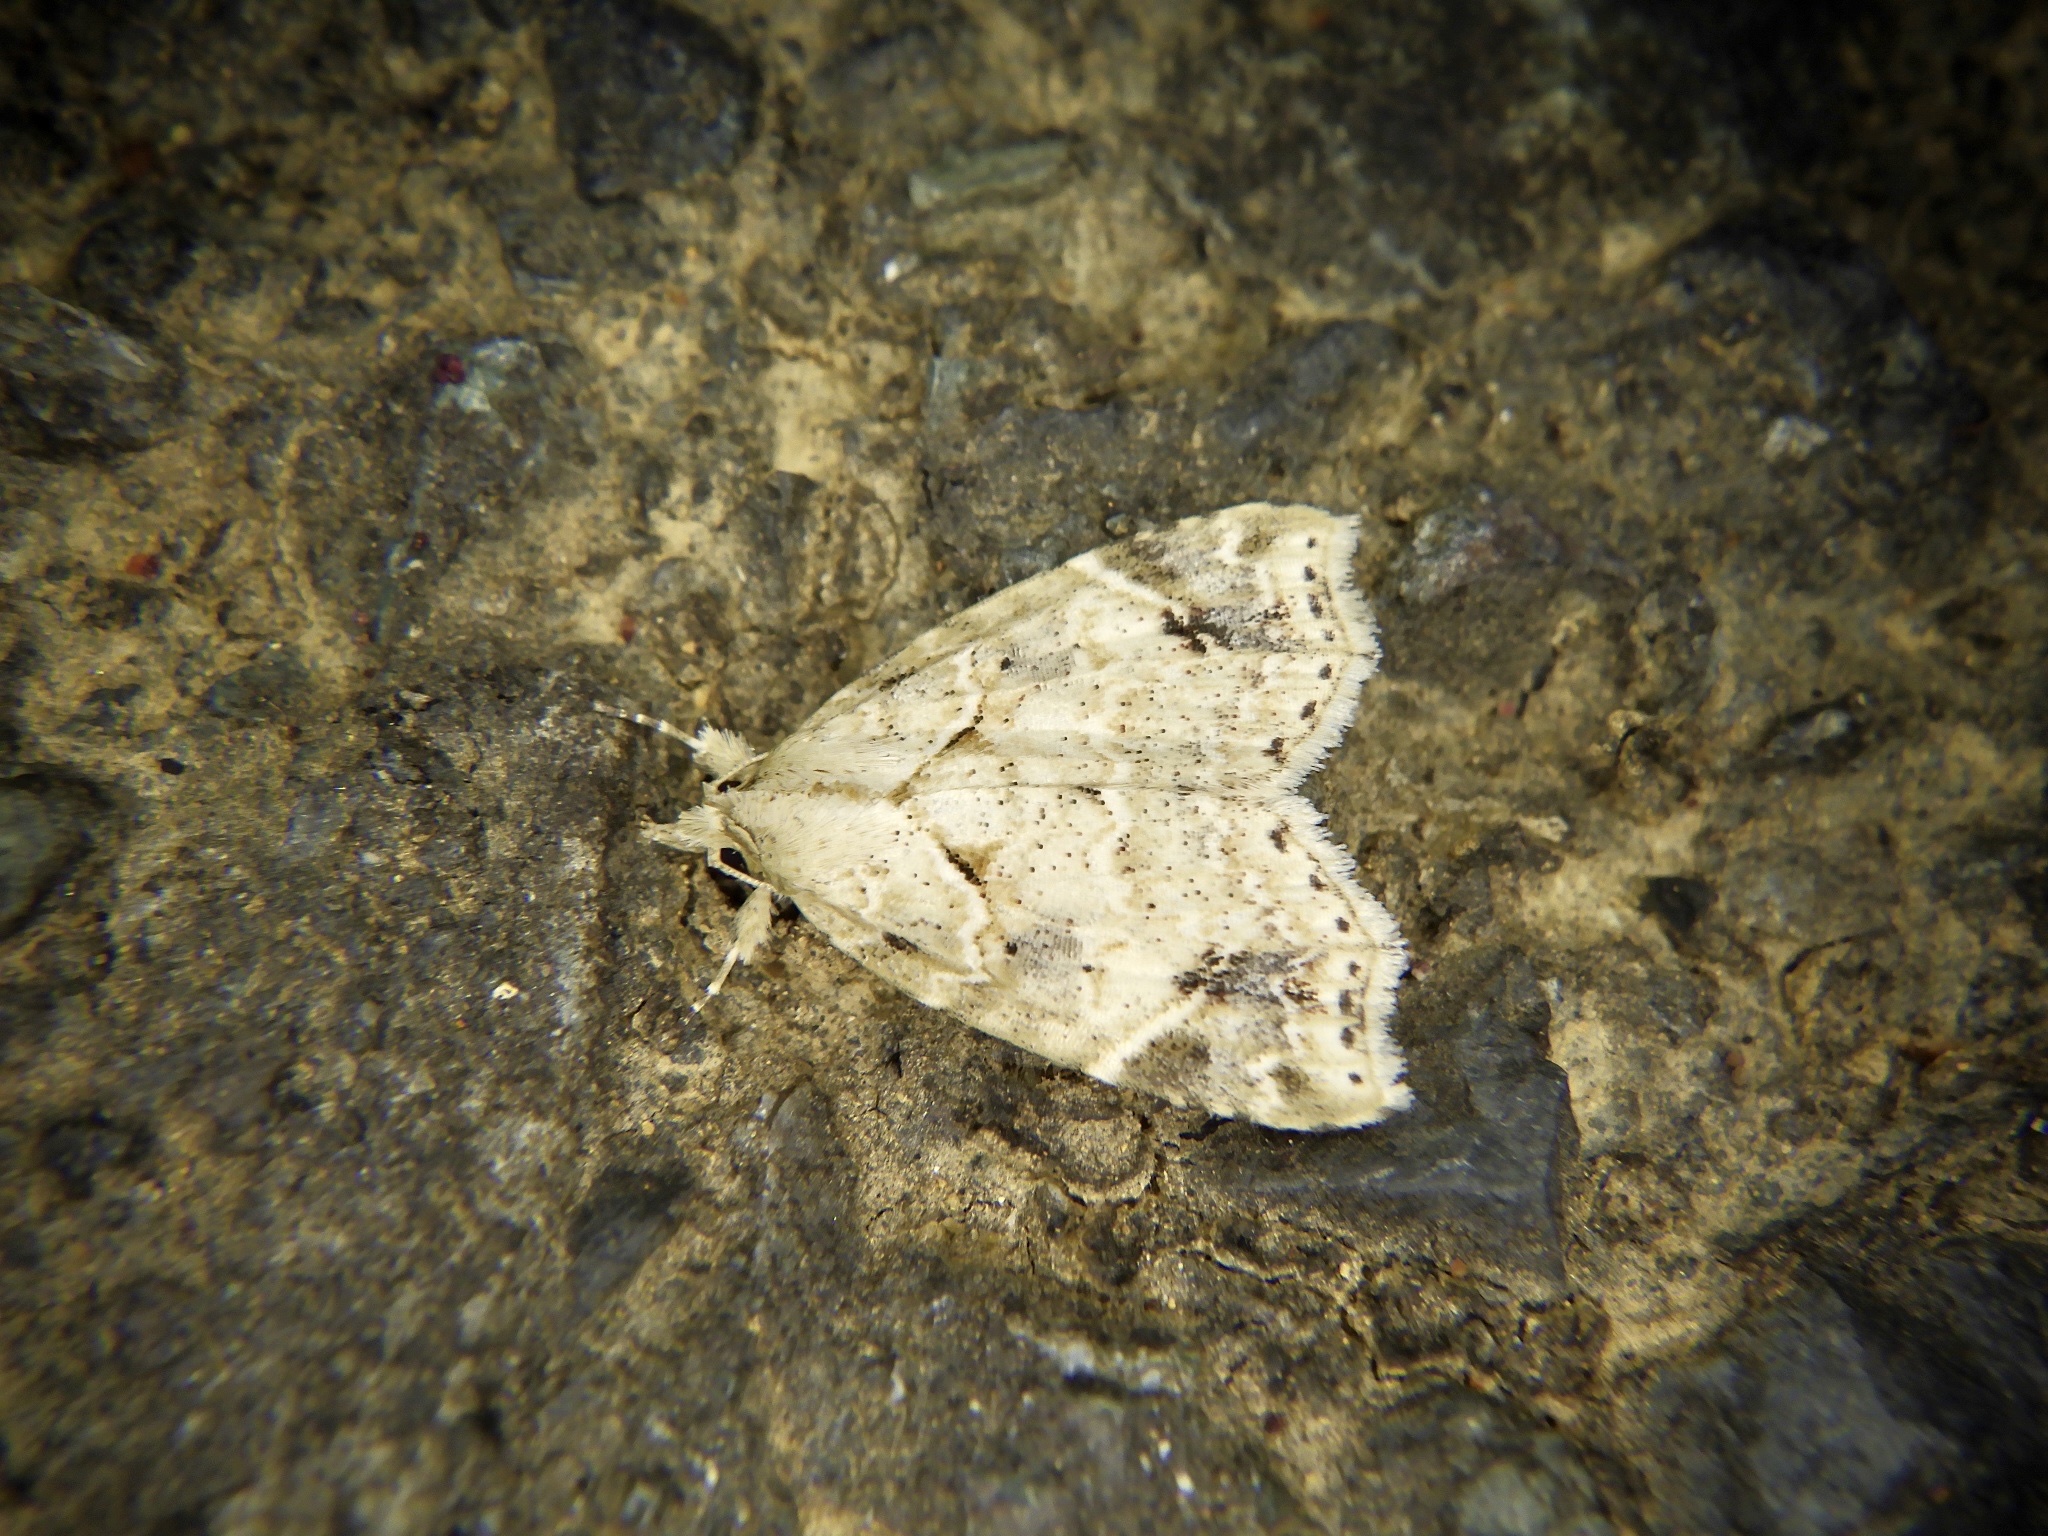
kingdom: Animalia
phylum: Arthropoda
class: Insecta
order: Lepidoptera
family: Erebidae
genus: Olulis
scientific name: Olulis
